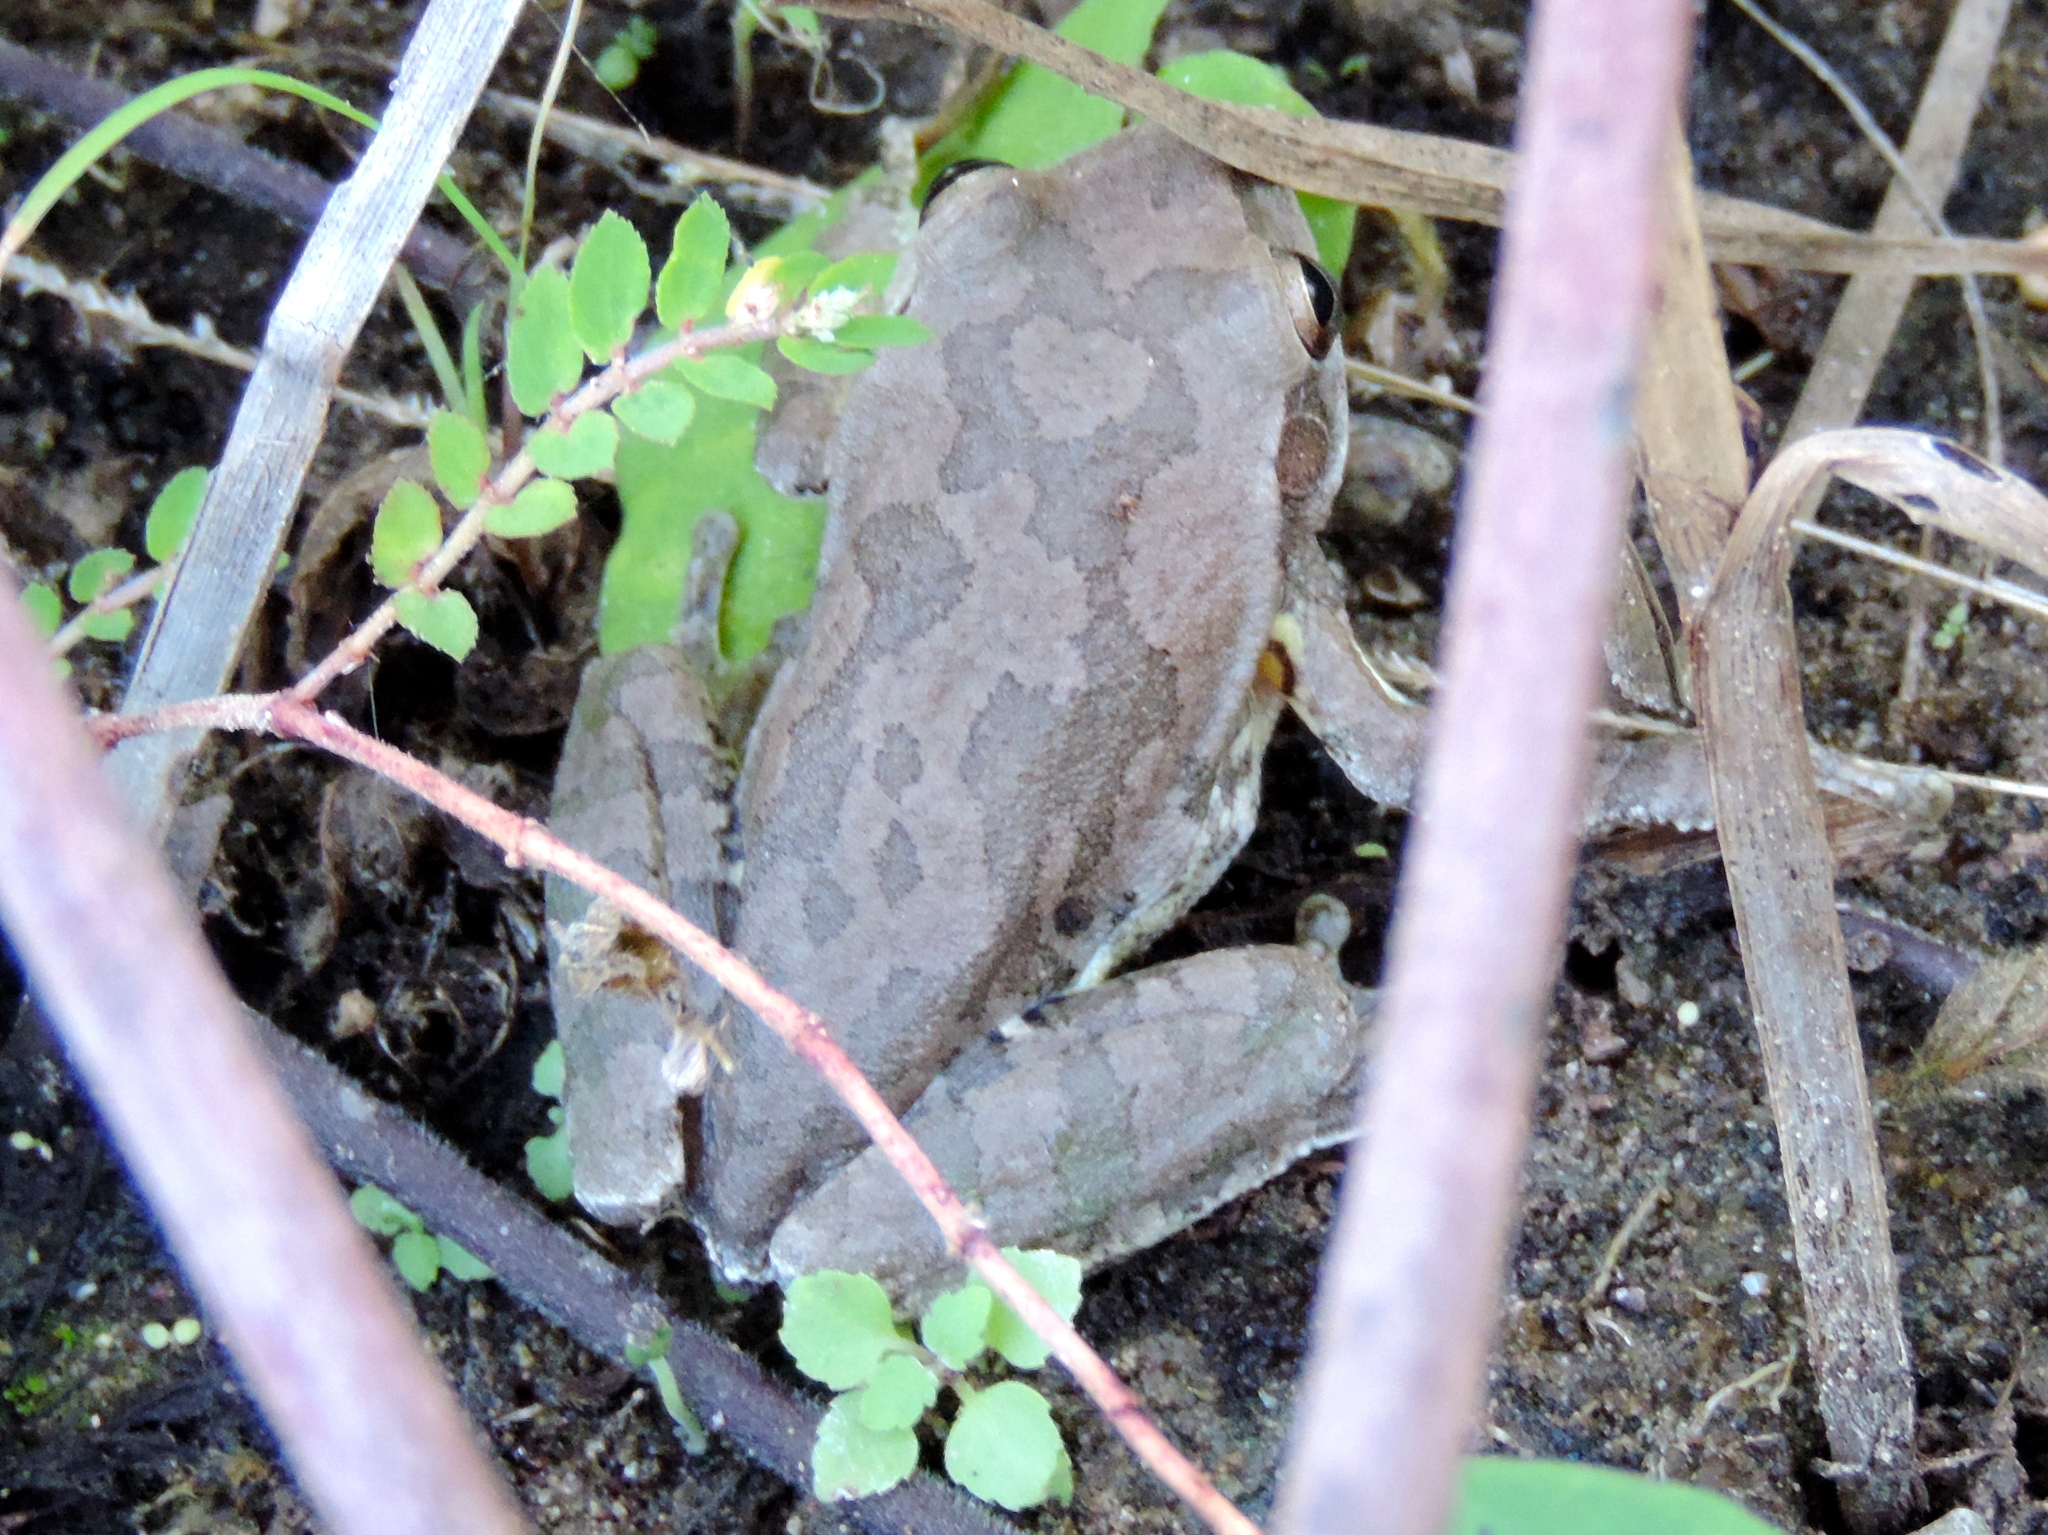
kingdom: Animalia
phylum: Chordata
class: Amphibia
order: Anura
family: Hylidae
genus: Smilisca
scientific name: Smilisca baudinii
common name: Mexican smilisca
